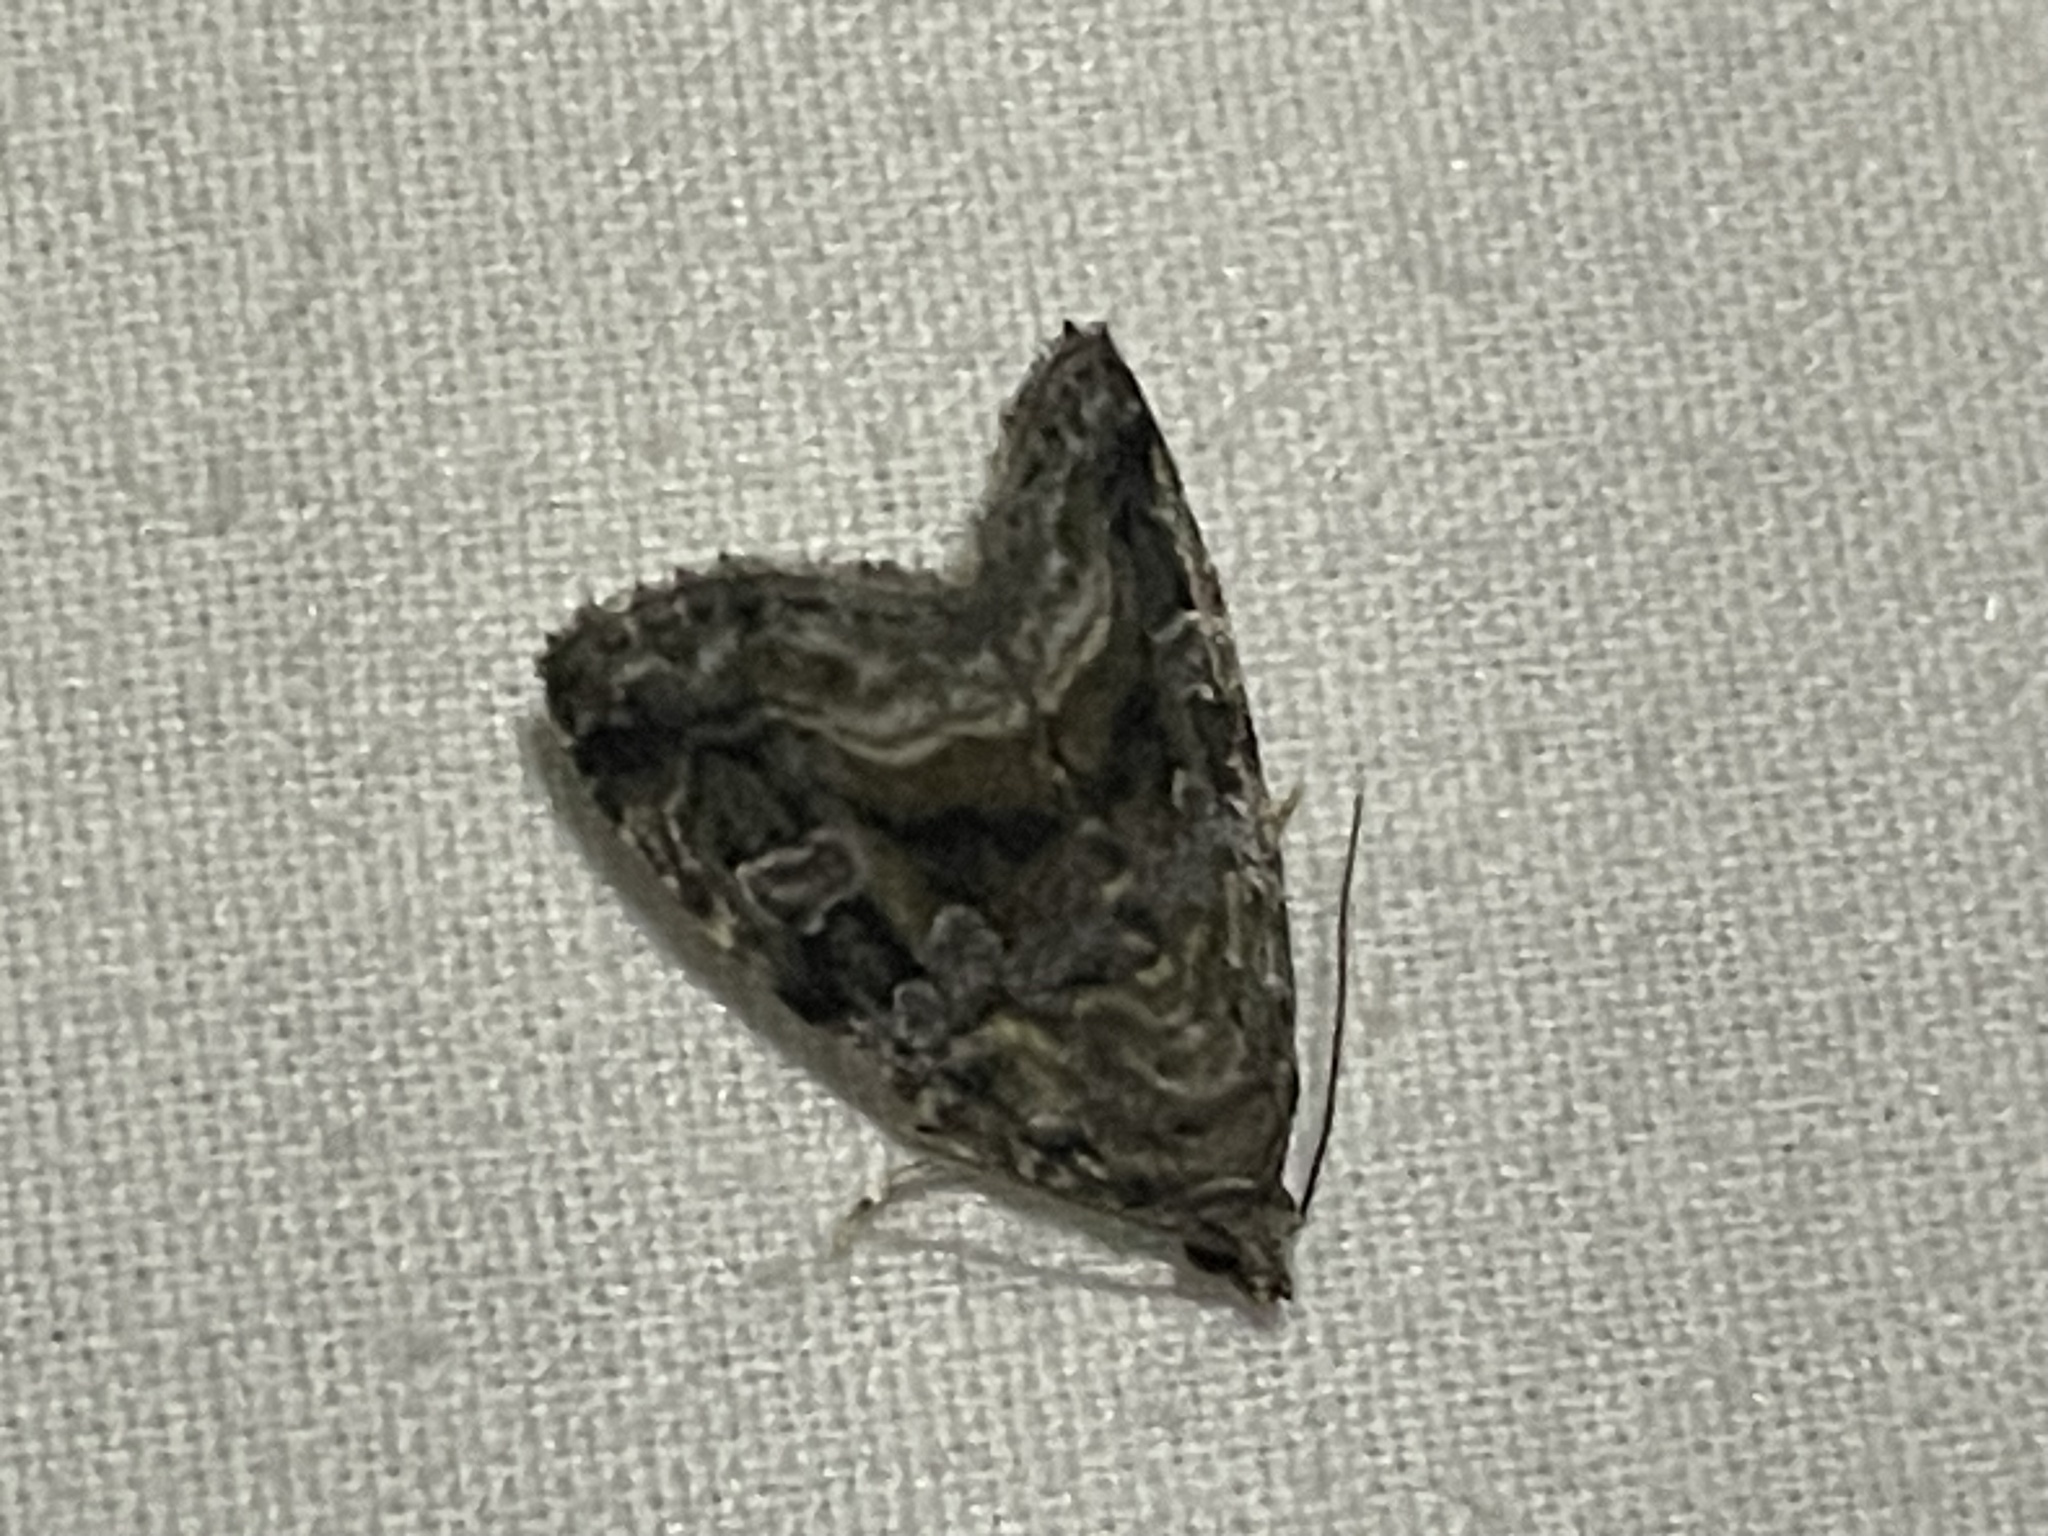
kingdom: Animalia
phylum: Arthropoda
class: Insecta
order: Lepidoptera
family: Noctuidae
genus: Protodeltote
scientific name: Protodeltote muscosula
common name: Large mossy glyph
